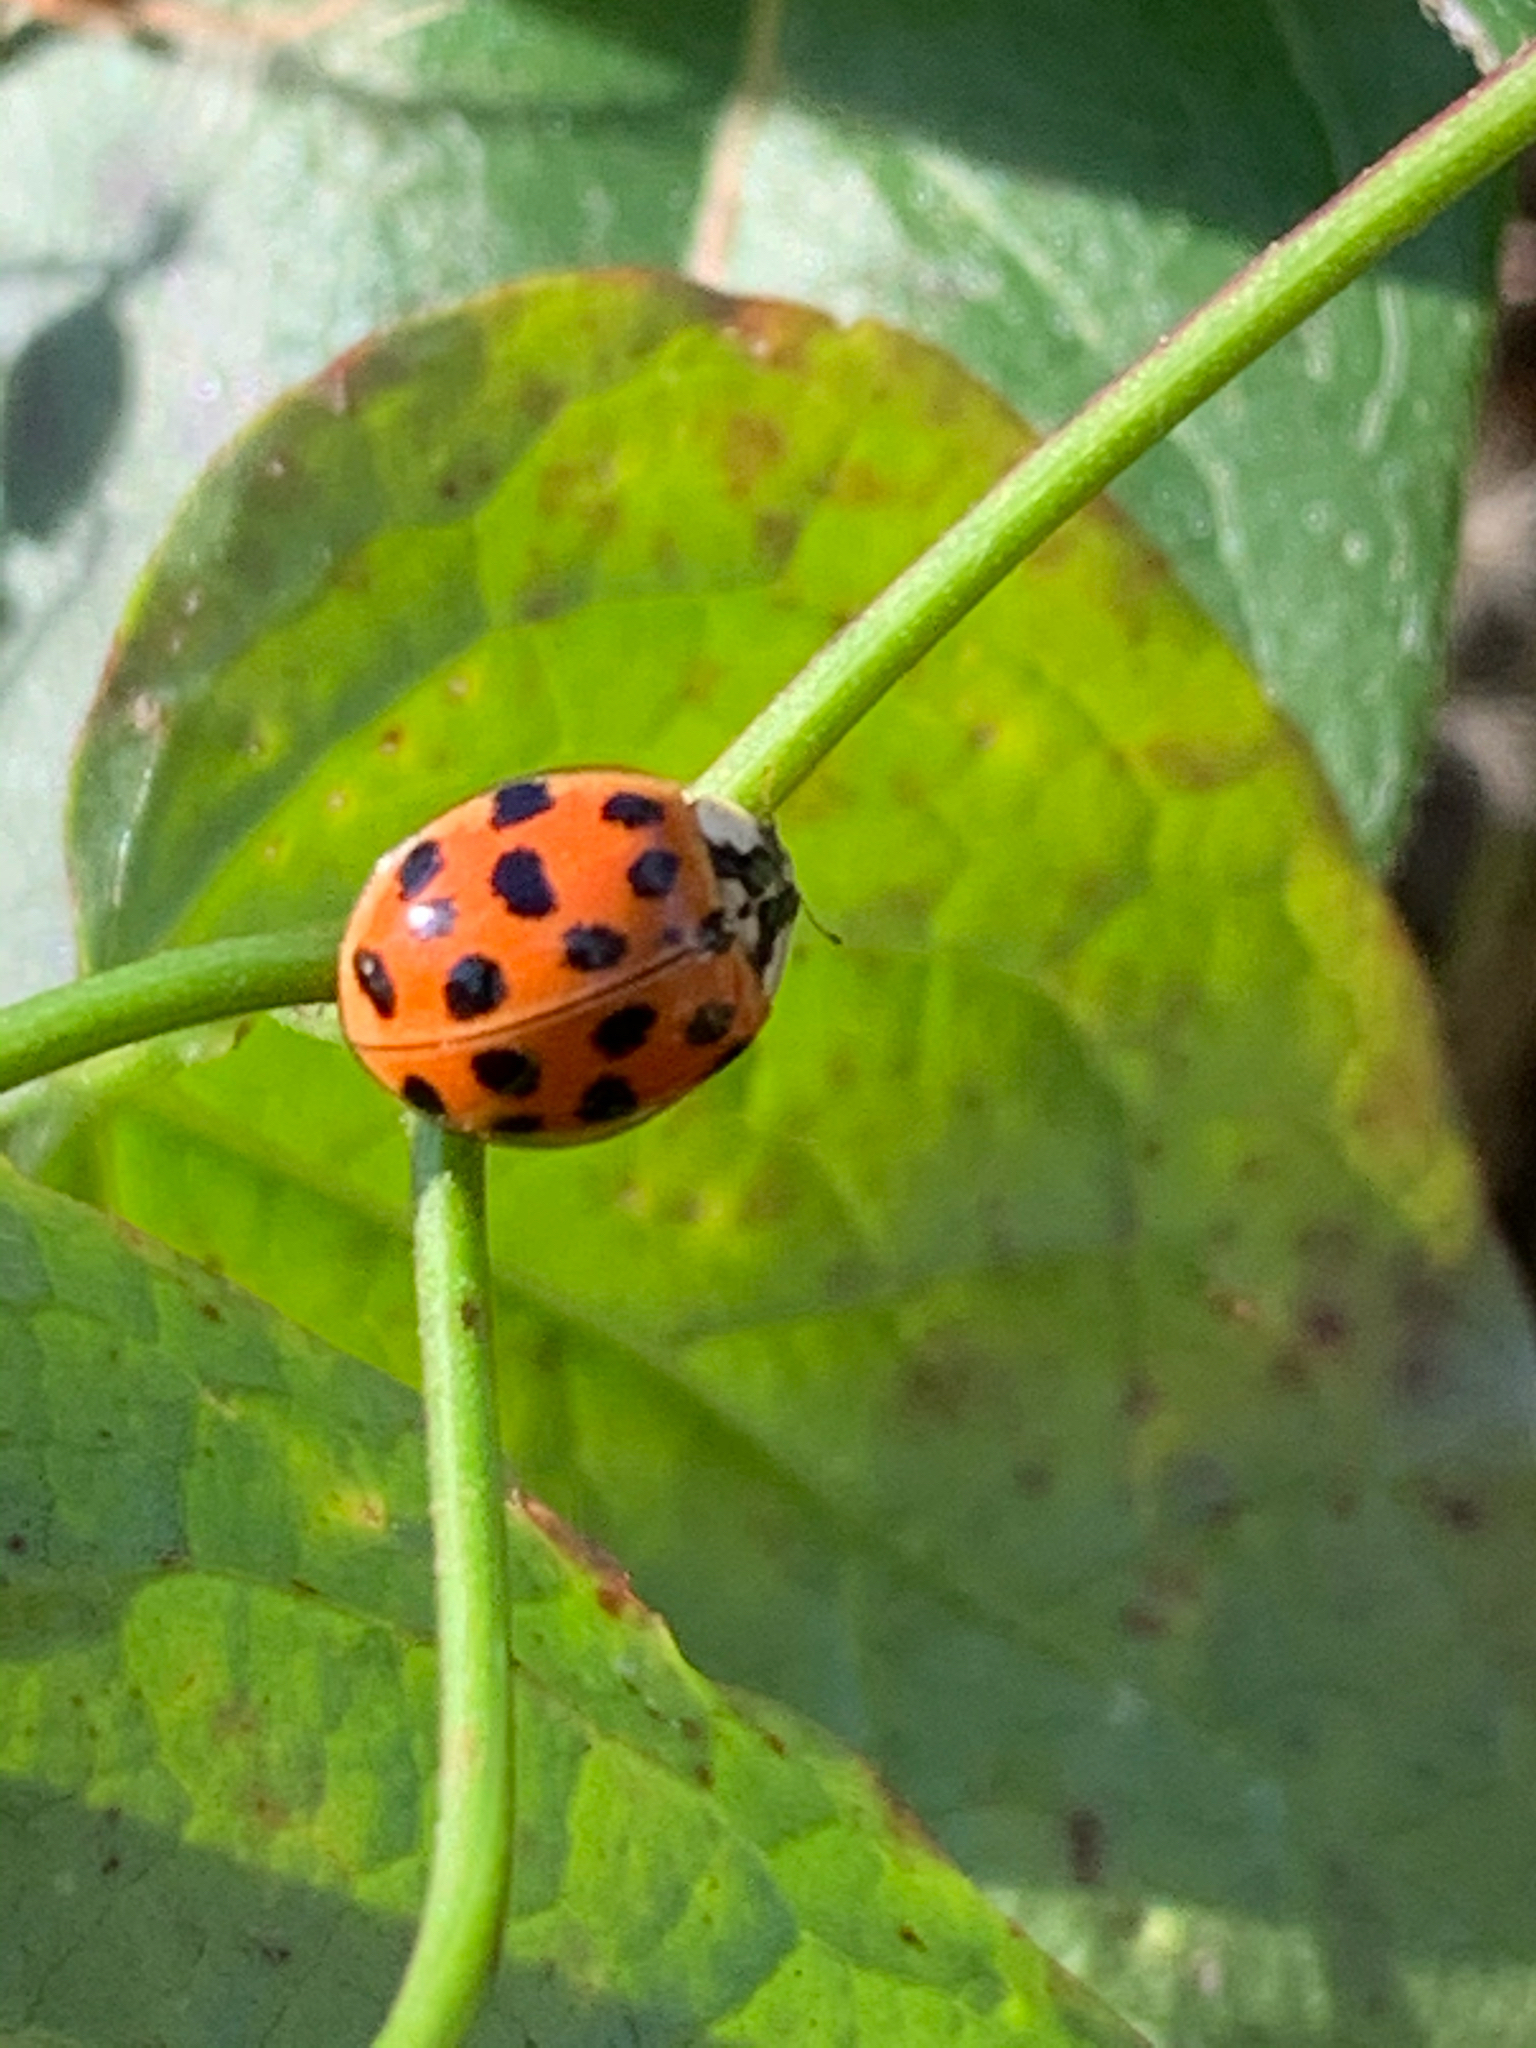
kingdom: Animalia
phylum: Arthropoda
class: Insecta
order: Coleoptera
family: Coccinellidae
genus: Harmonia
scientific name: Harmonia axyridis
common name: Harlequin ladybird
